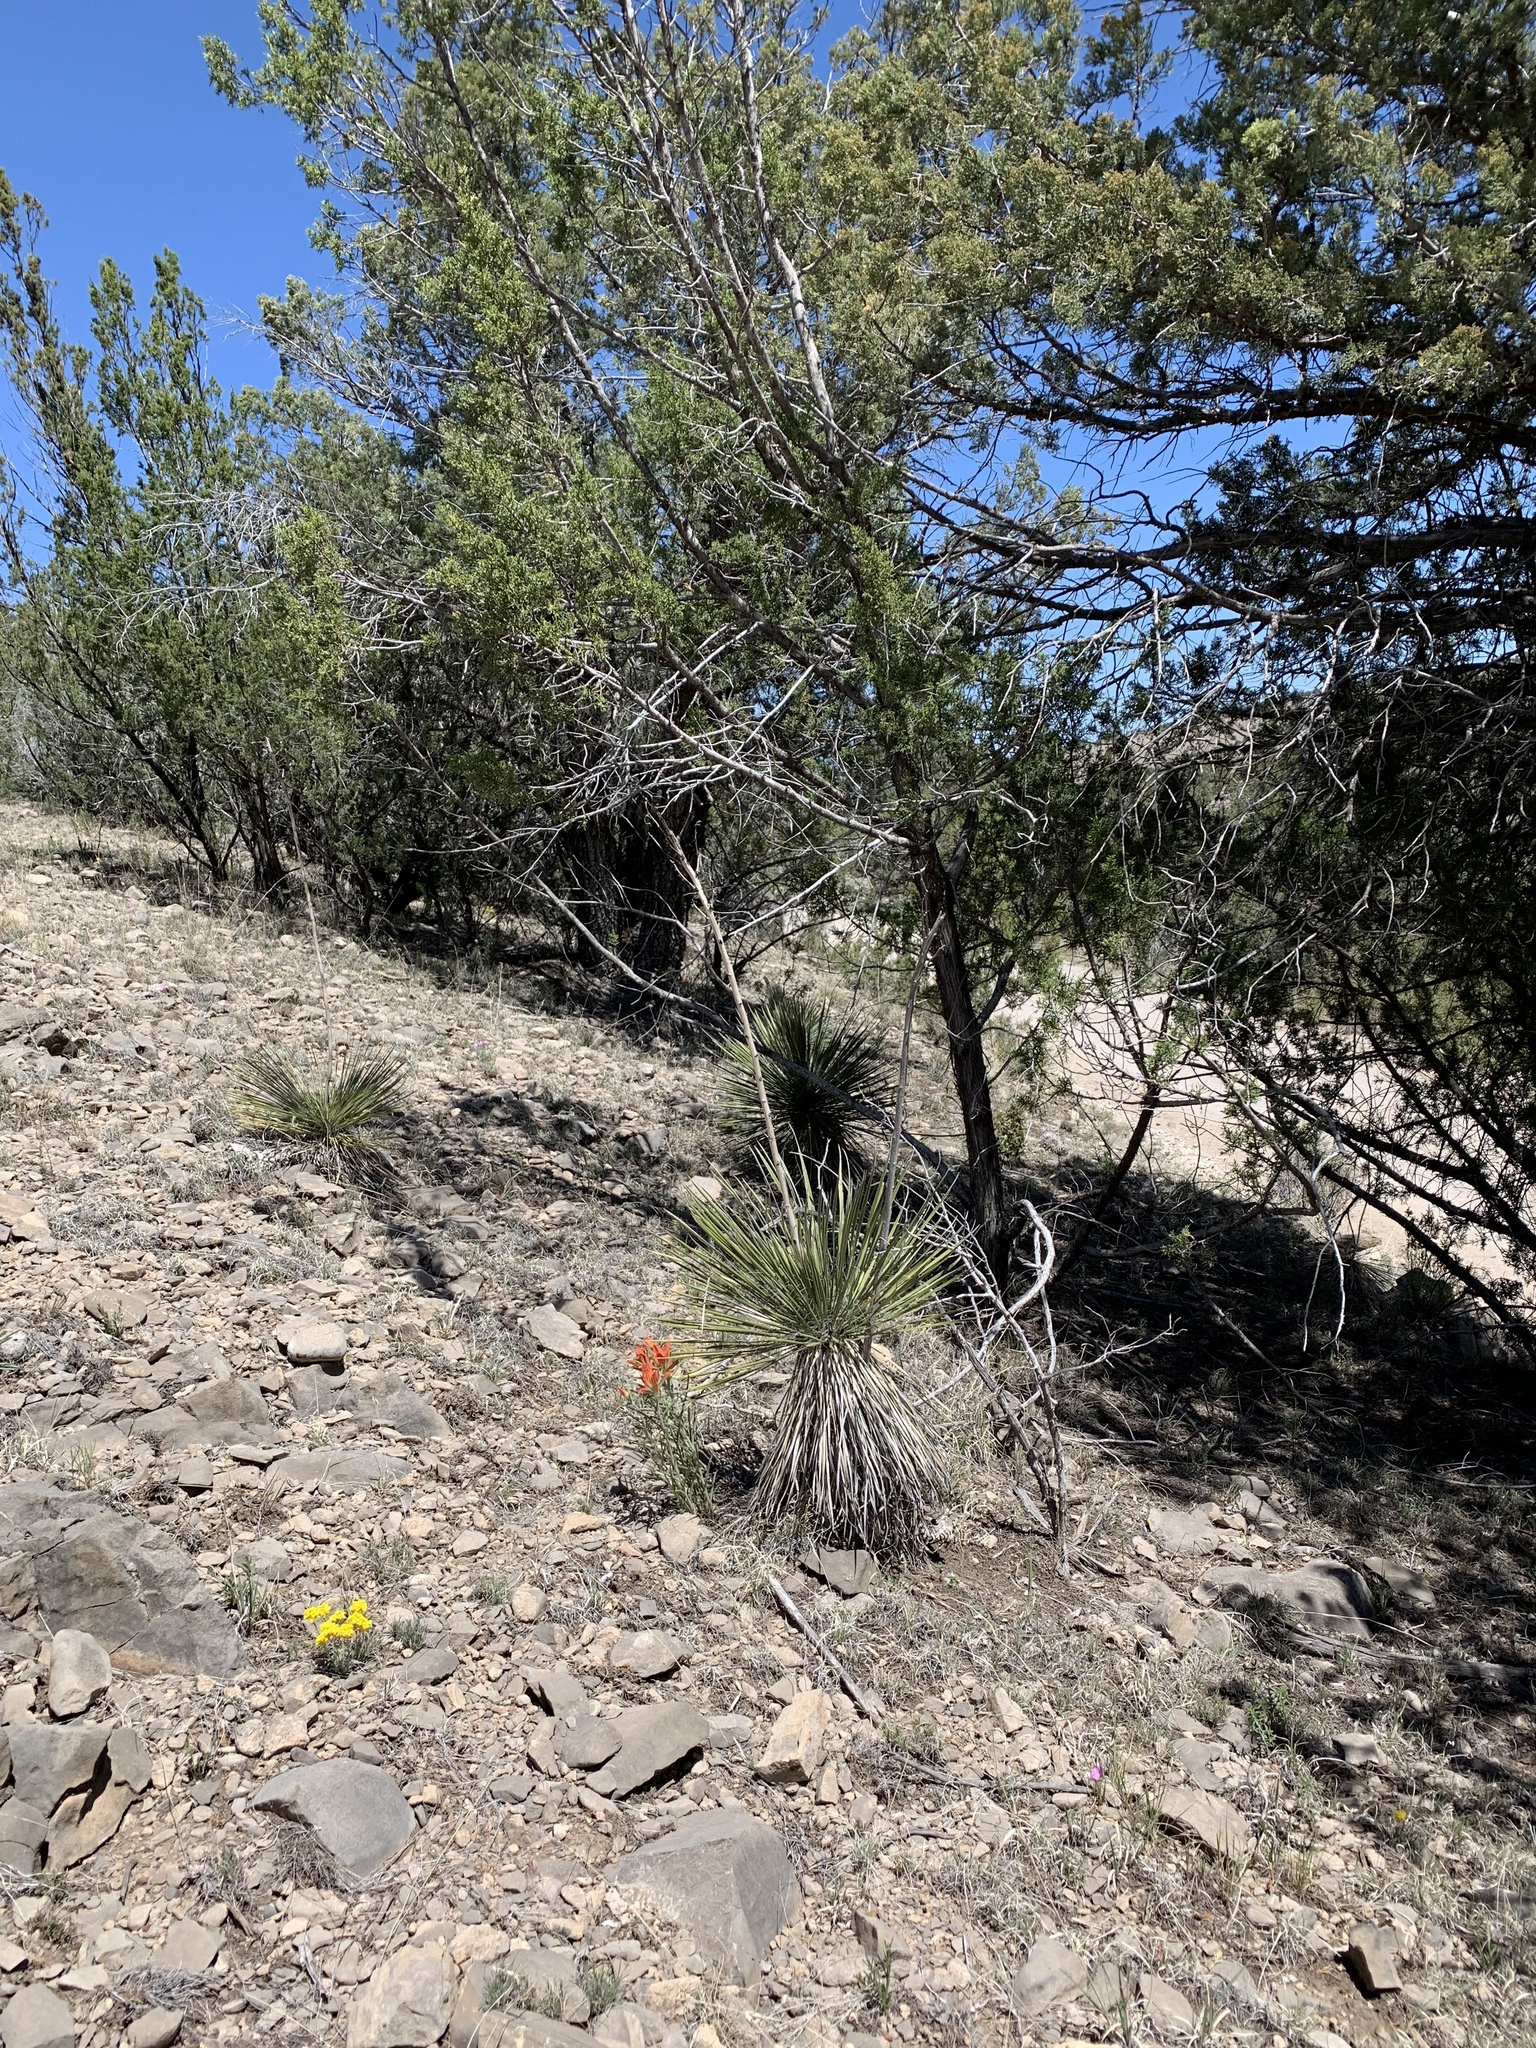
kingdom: Plantae
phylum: Tracheophyta
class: Liliopsida
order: Asparagales
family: Asparagaceae
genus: Yucca
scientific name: Yucca elata
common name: Palmella
